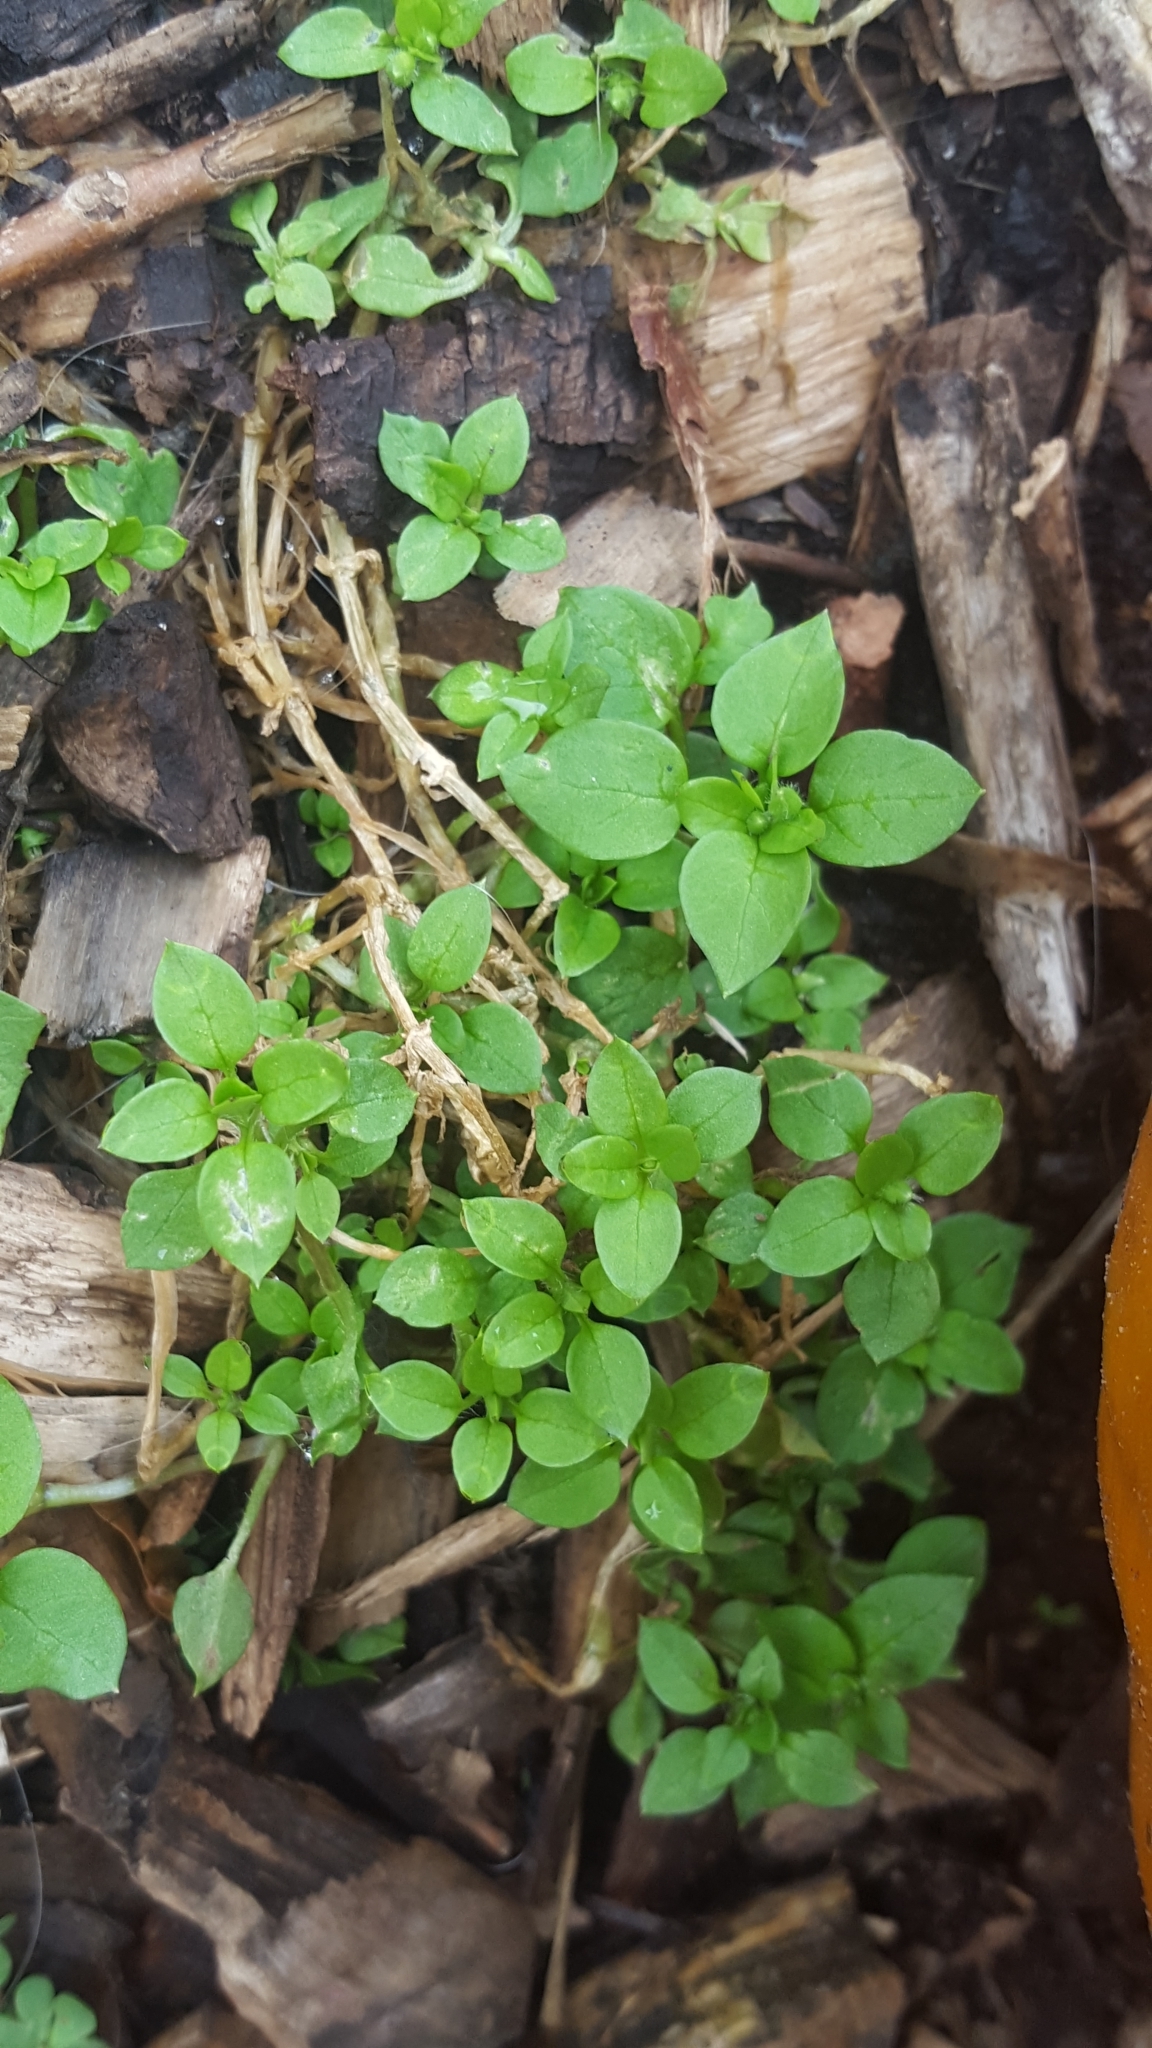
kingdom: Plantae
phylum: Tracheophyta
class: Magnoliopsida
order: Caryophyllales
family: Caryophyllaceae
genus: Stellaria
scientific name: Stellaria media
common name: Common chickweed
